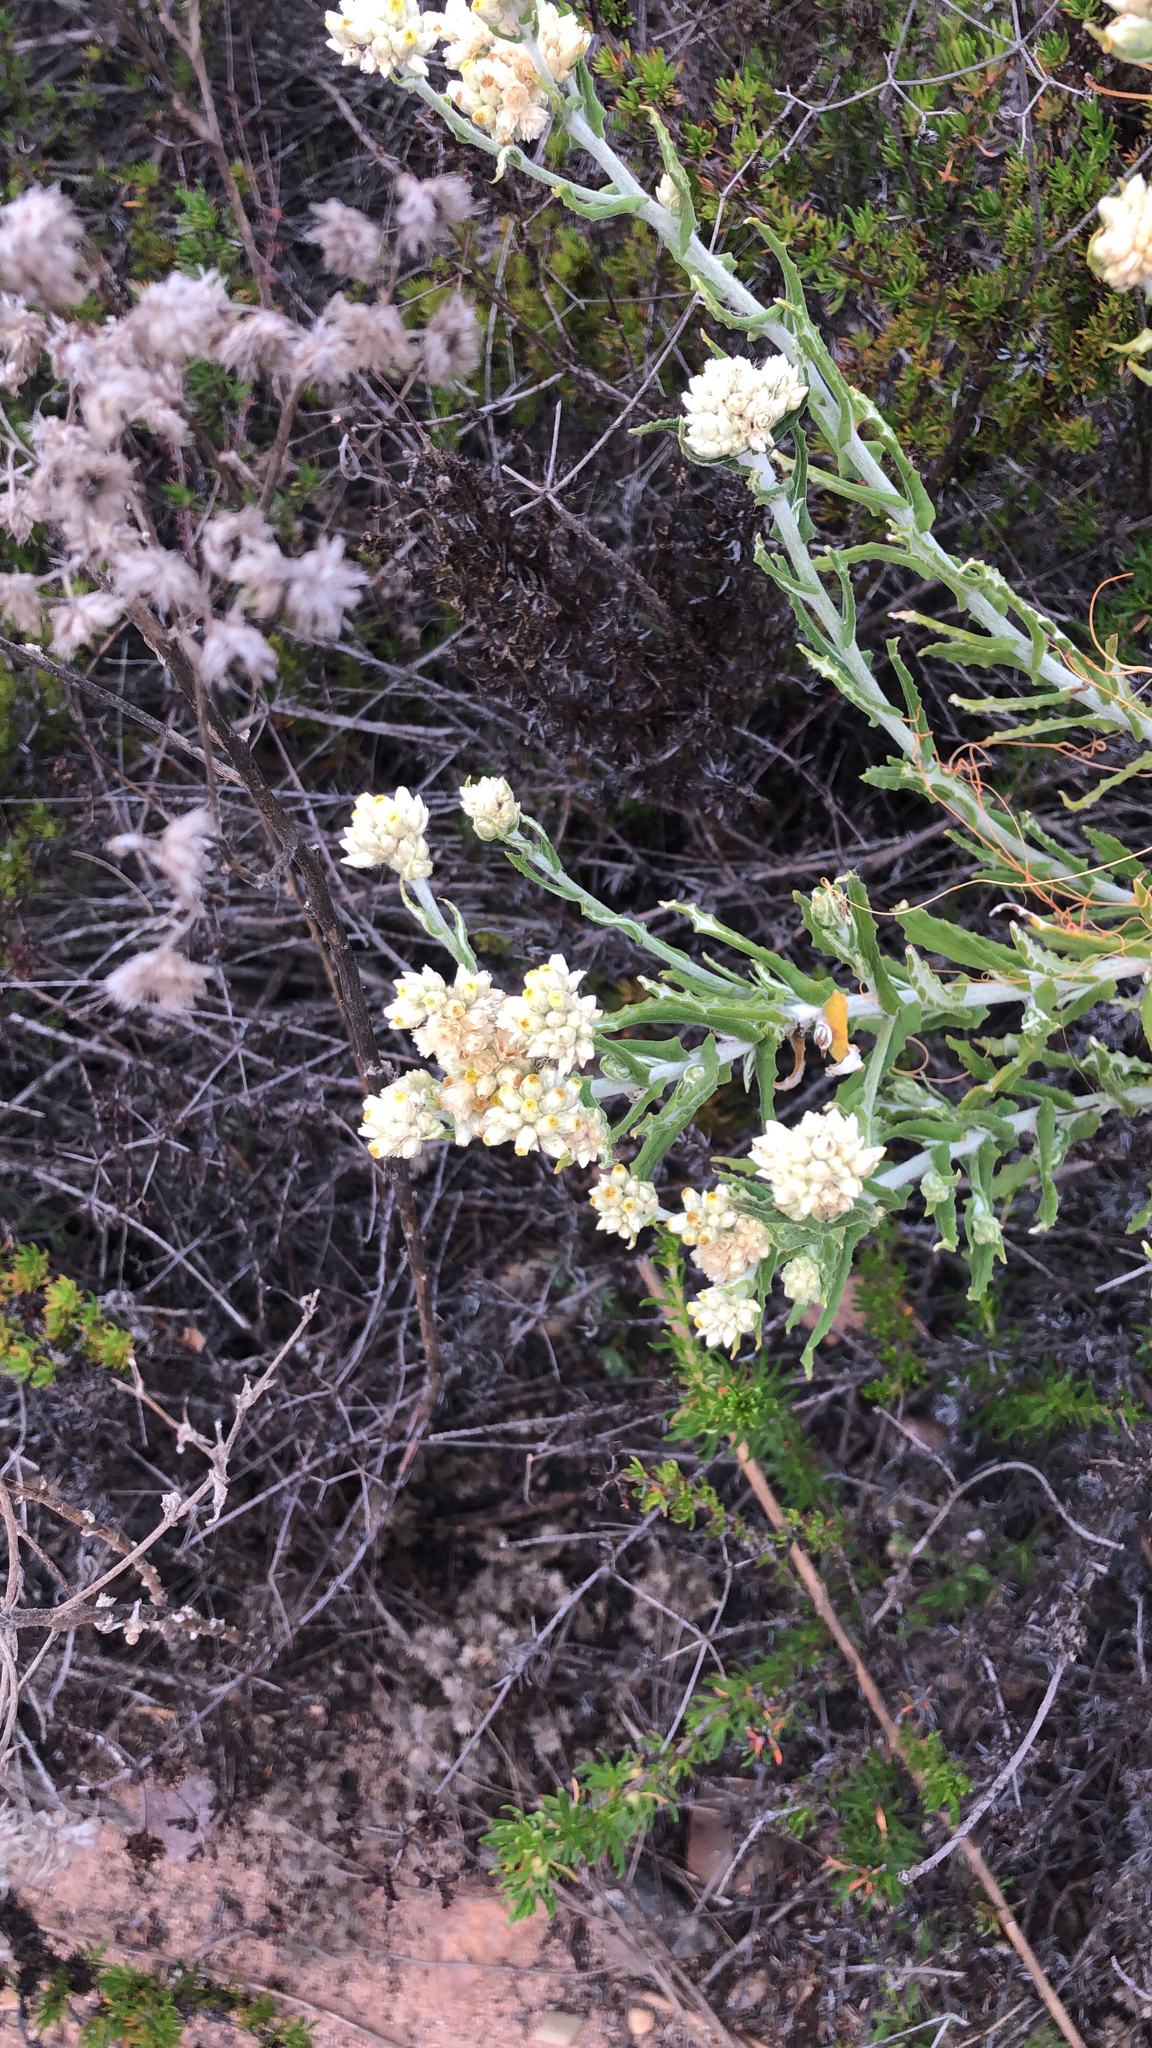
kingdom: Plantae
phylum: Tracheophyta
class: Magnoliopsida
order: Asterales
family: Asteraceae
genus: Pseudognaphalium
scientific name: Pseudognaphalium biolettii
